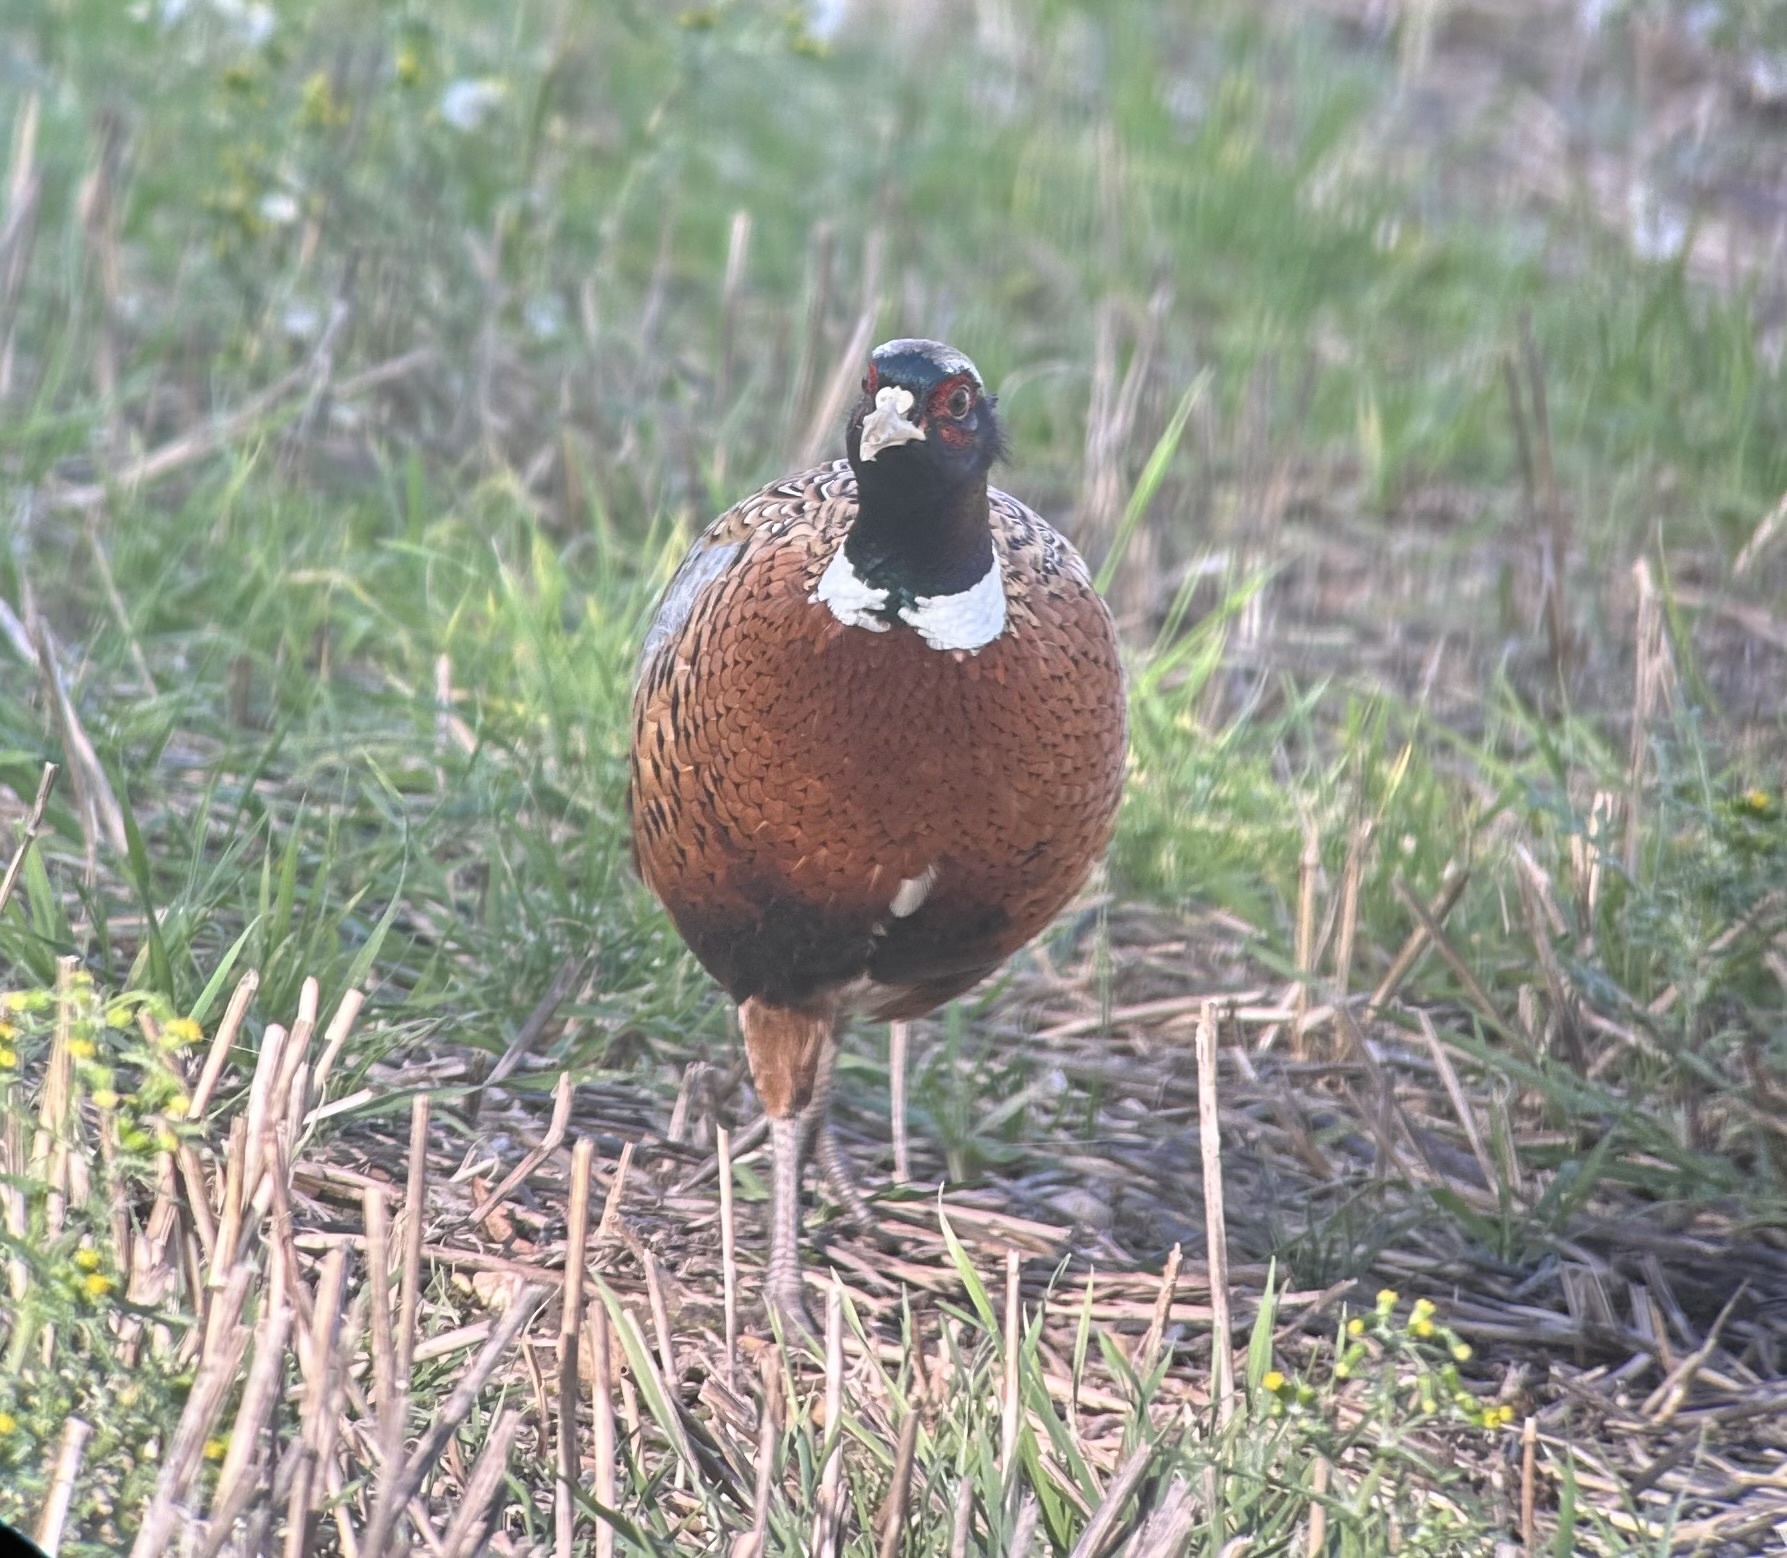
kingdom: Animalia
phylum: Chordata
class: Aves
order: Galliformes
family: Phasianidae
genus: Phasianus
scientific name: Phasianus colchicus
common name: Common pheasant
